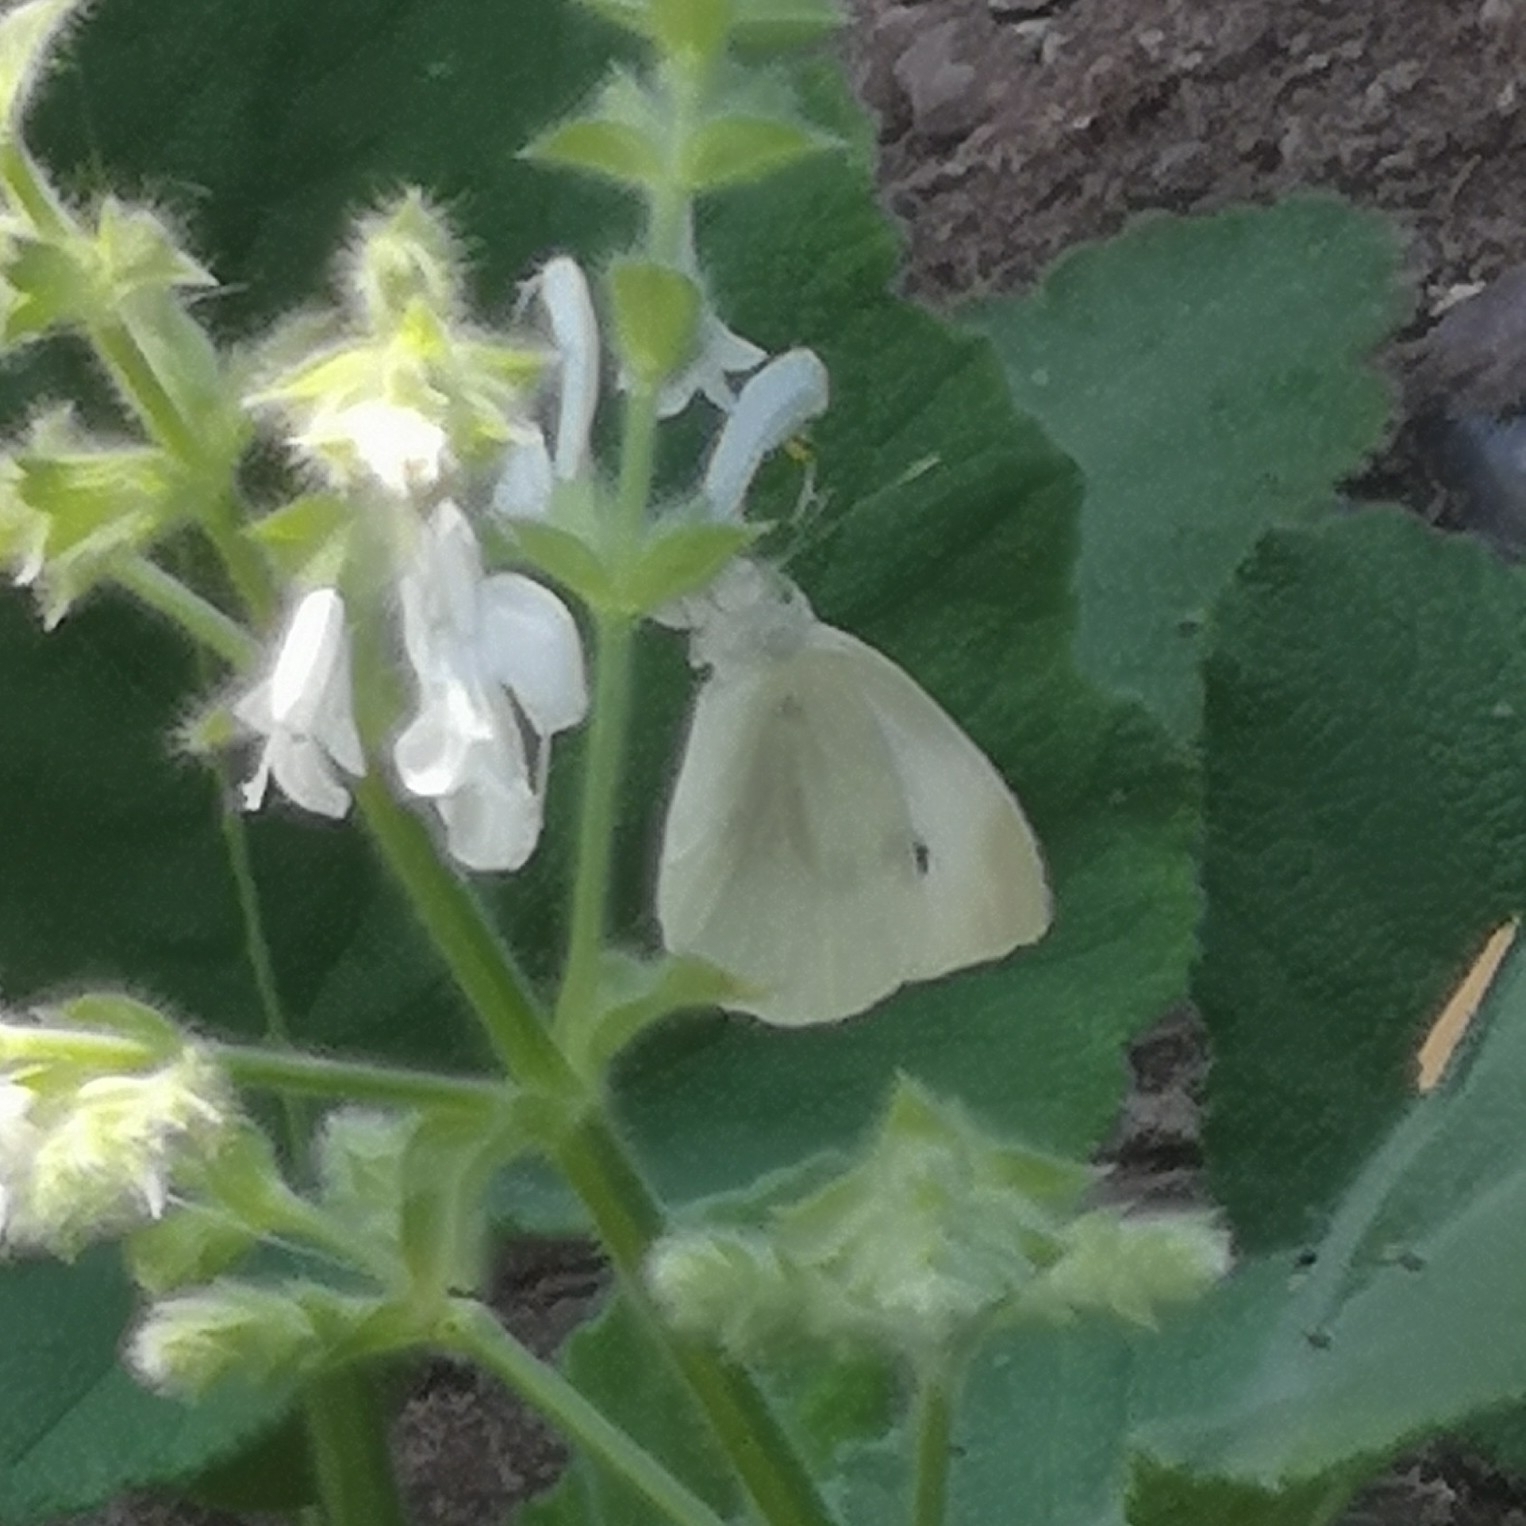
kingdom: Animalia
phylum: Arthropoda
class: Insecta
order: Lepidoptera
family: Pieridae
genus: Pieris
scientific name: Pieris rapae
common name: Small white
